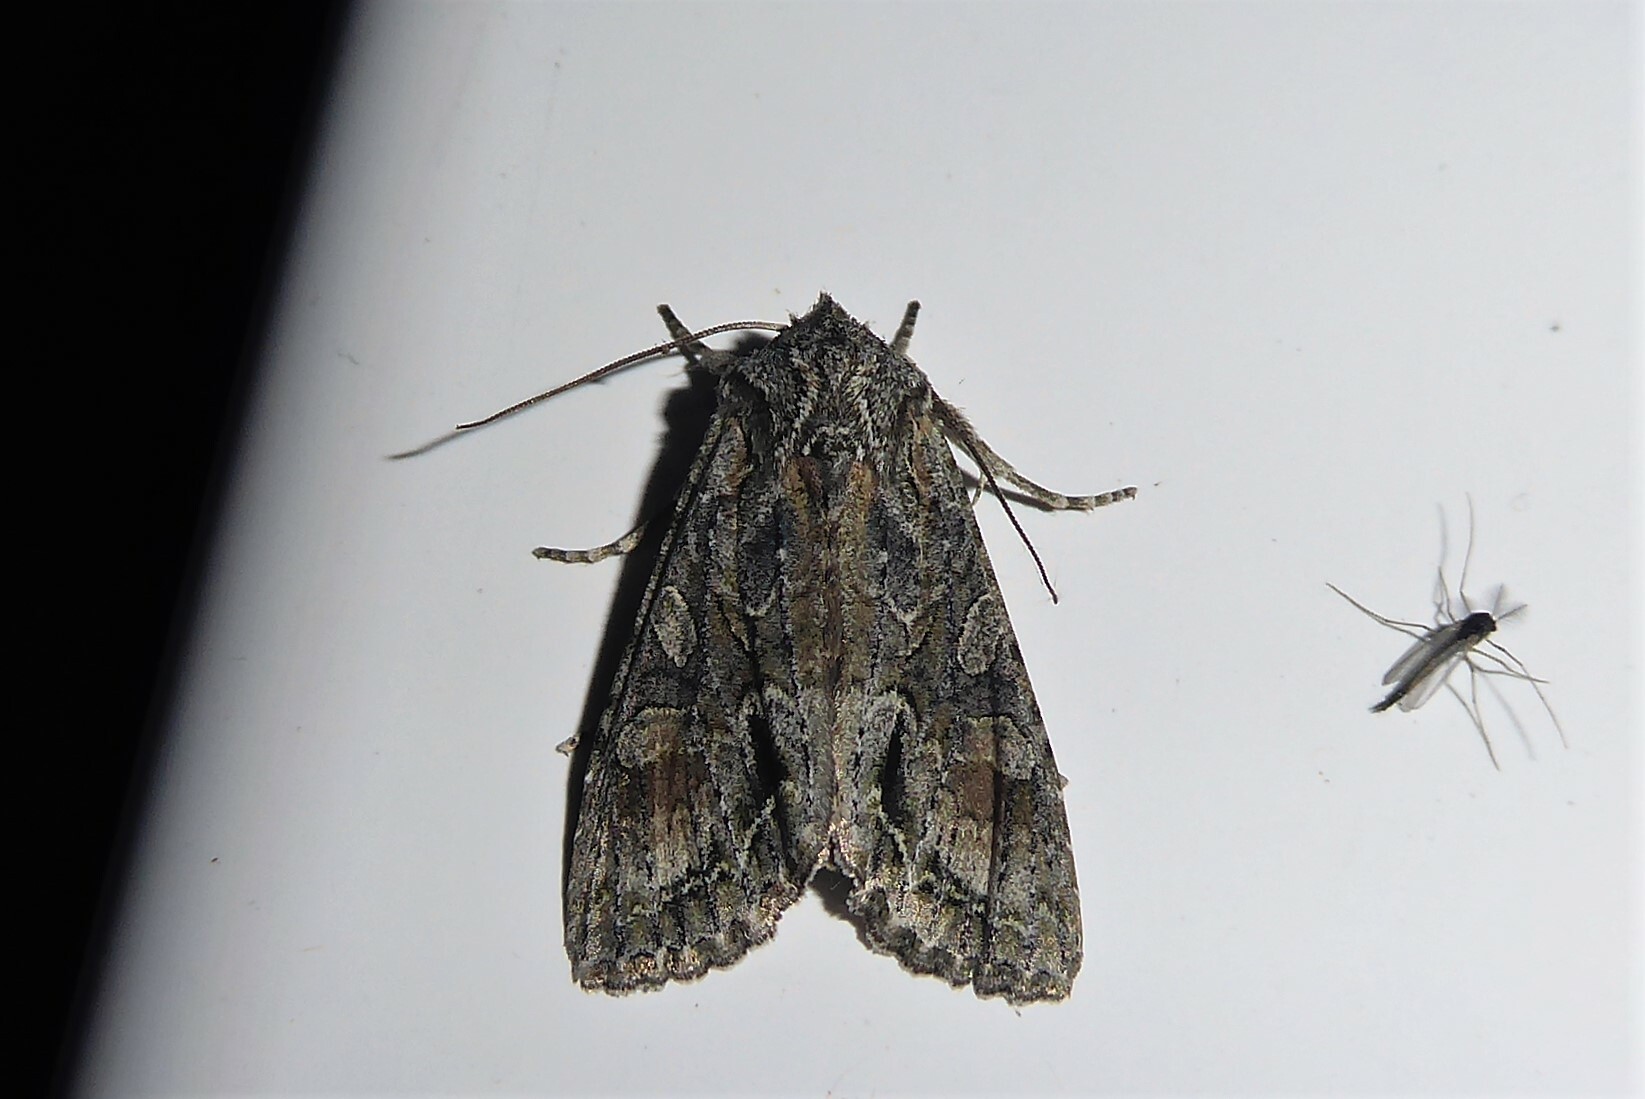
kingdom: Animalia
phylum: Arthropoda
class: Insecta
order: Lepidoptera
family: Noctuidae
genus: Ichneutica
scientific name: Ichneutica mutans
